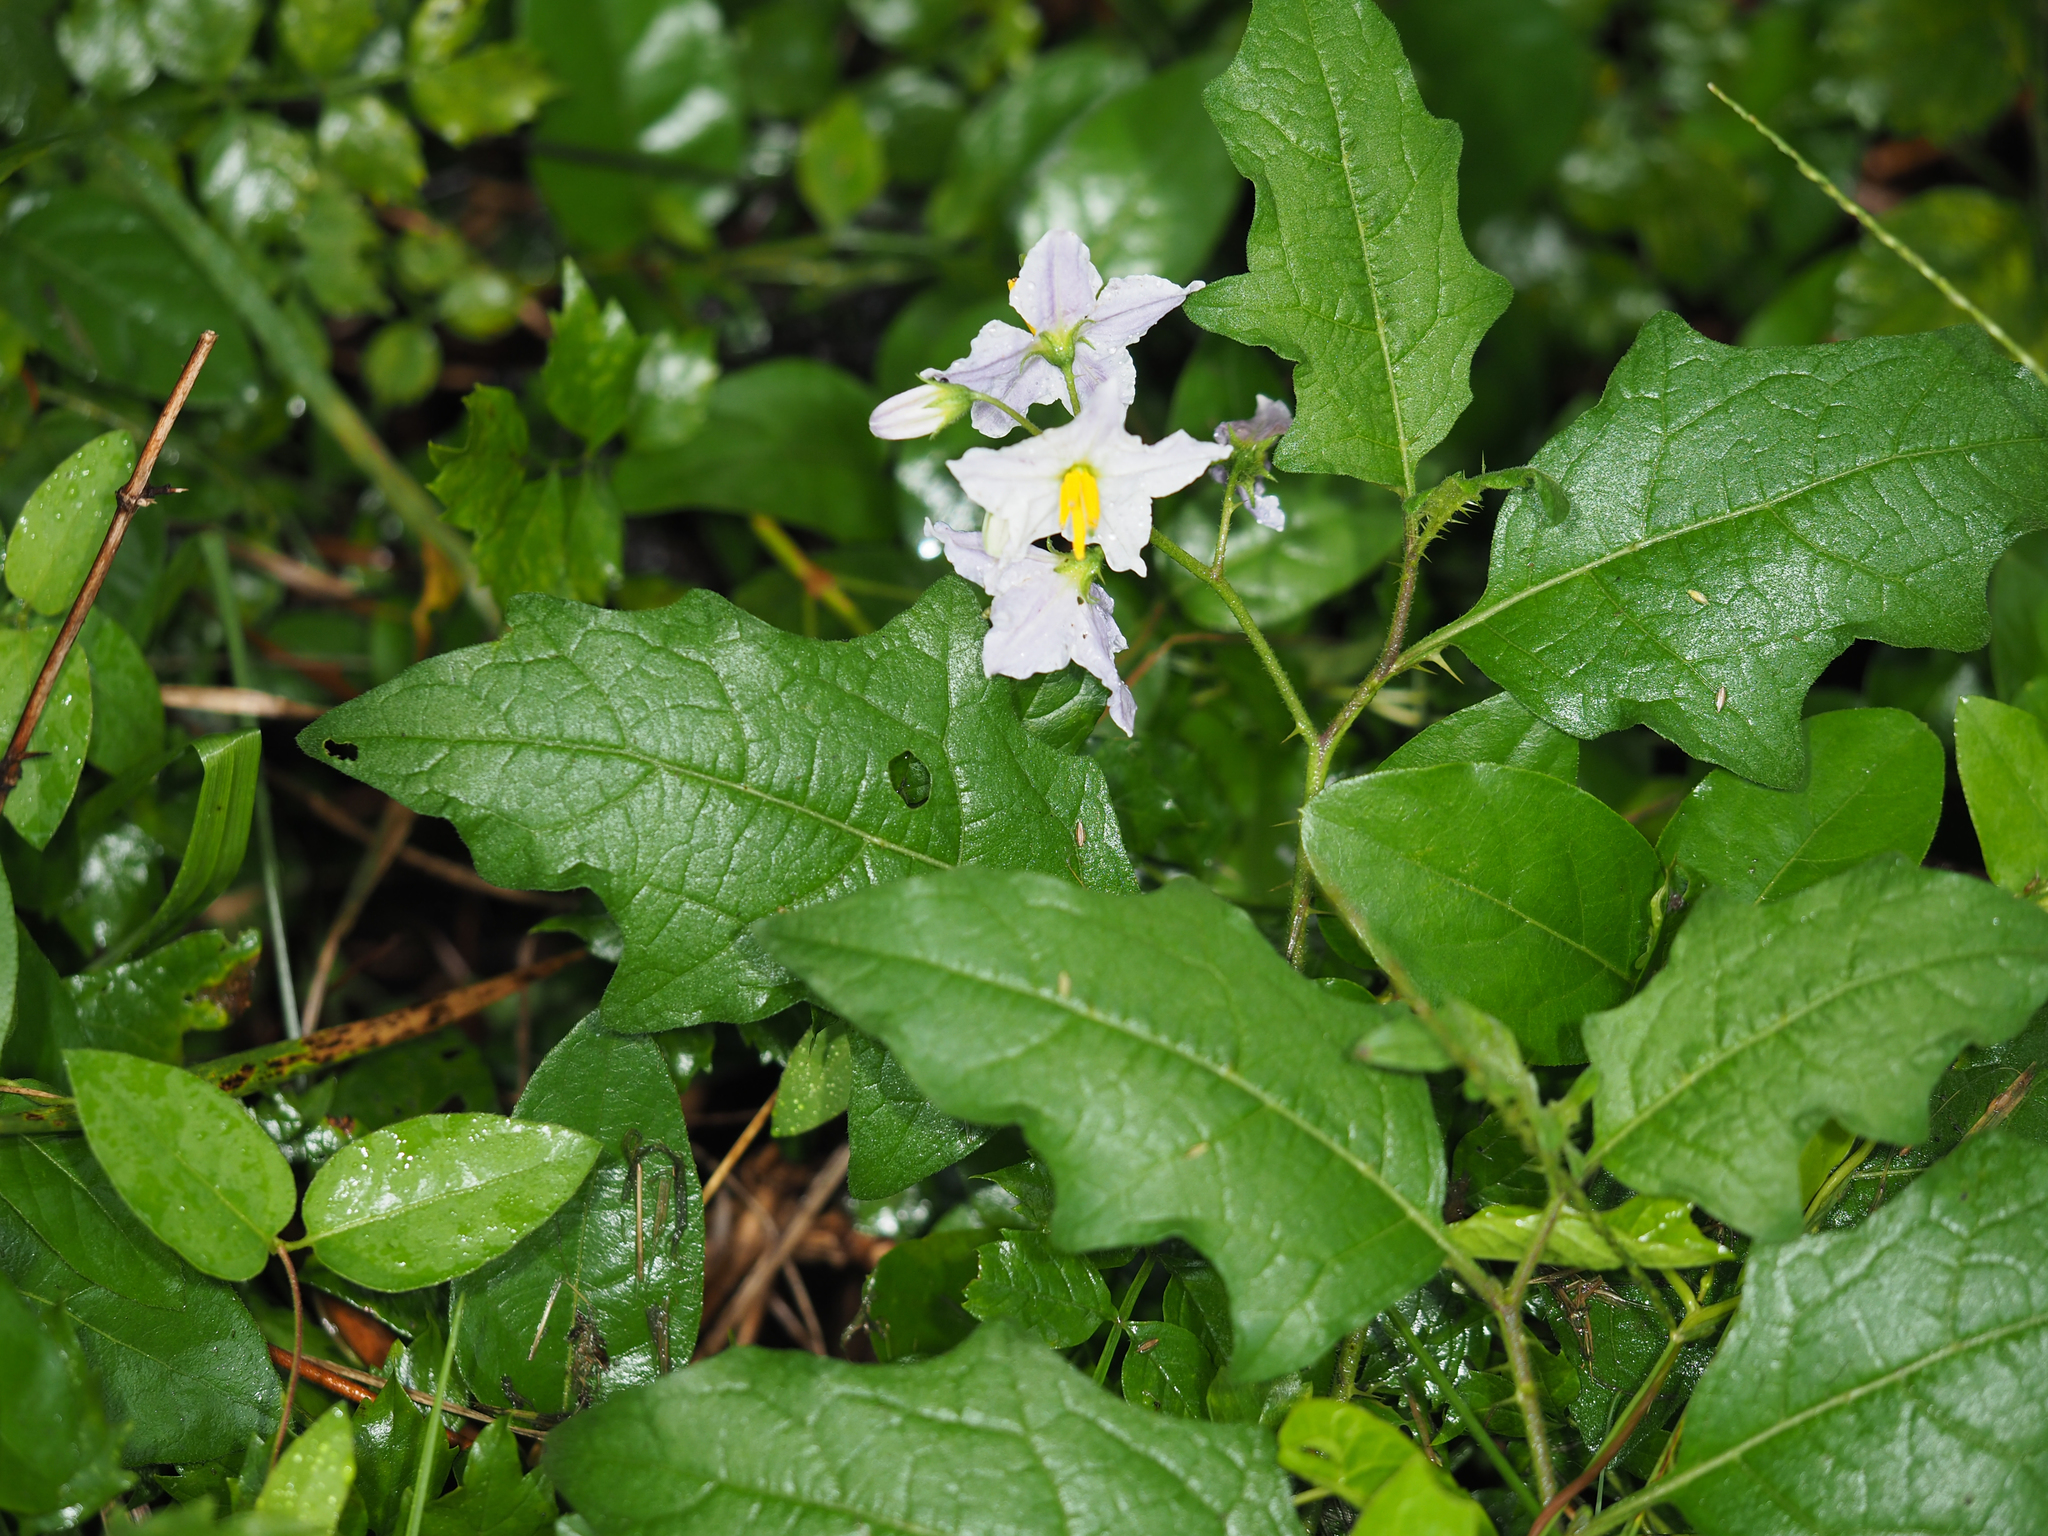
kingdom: Plantae
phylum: Tracheophyta
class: Magnoliopsida
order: Solanales
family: Solanaceae
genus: Solanum
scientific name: Solanum carolinense
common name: Horse-nettle
